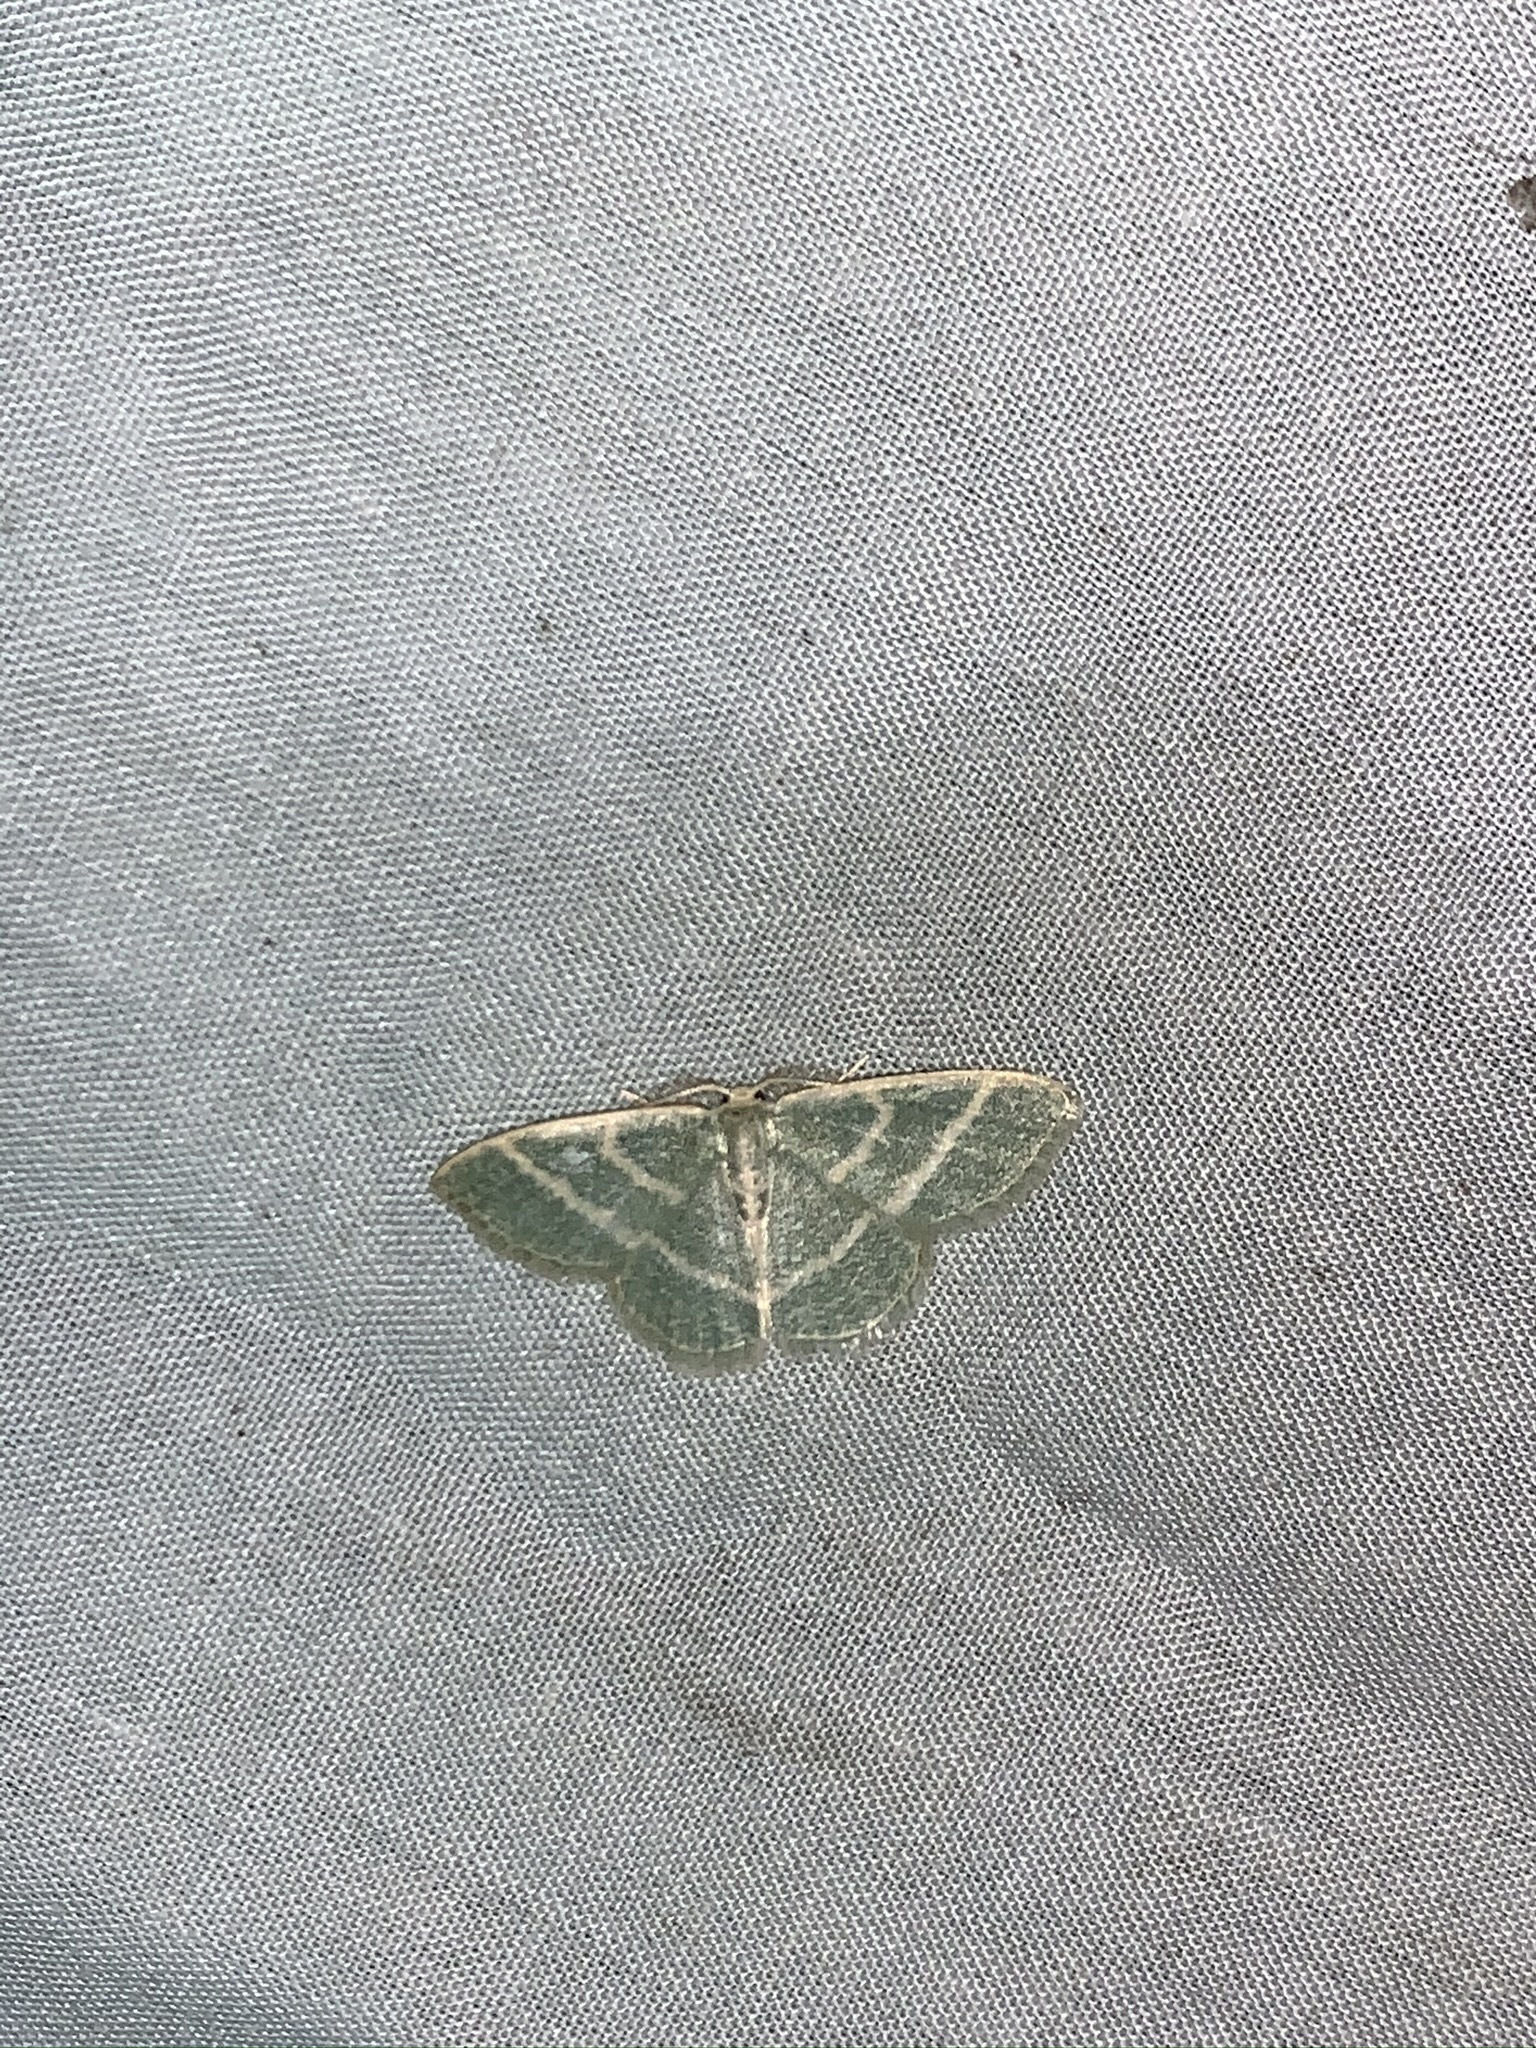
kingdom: Animalia
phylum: Arthropoda
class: Insecta
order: Lepidoptera
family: Geometridae
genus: Chlorochlamys
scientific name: Chlorochlamys chloroleucaria
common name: Blackberry looper
